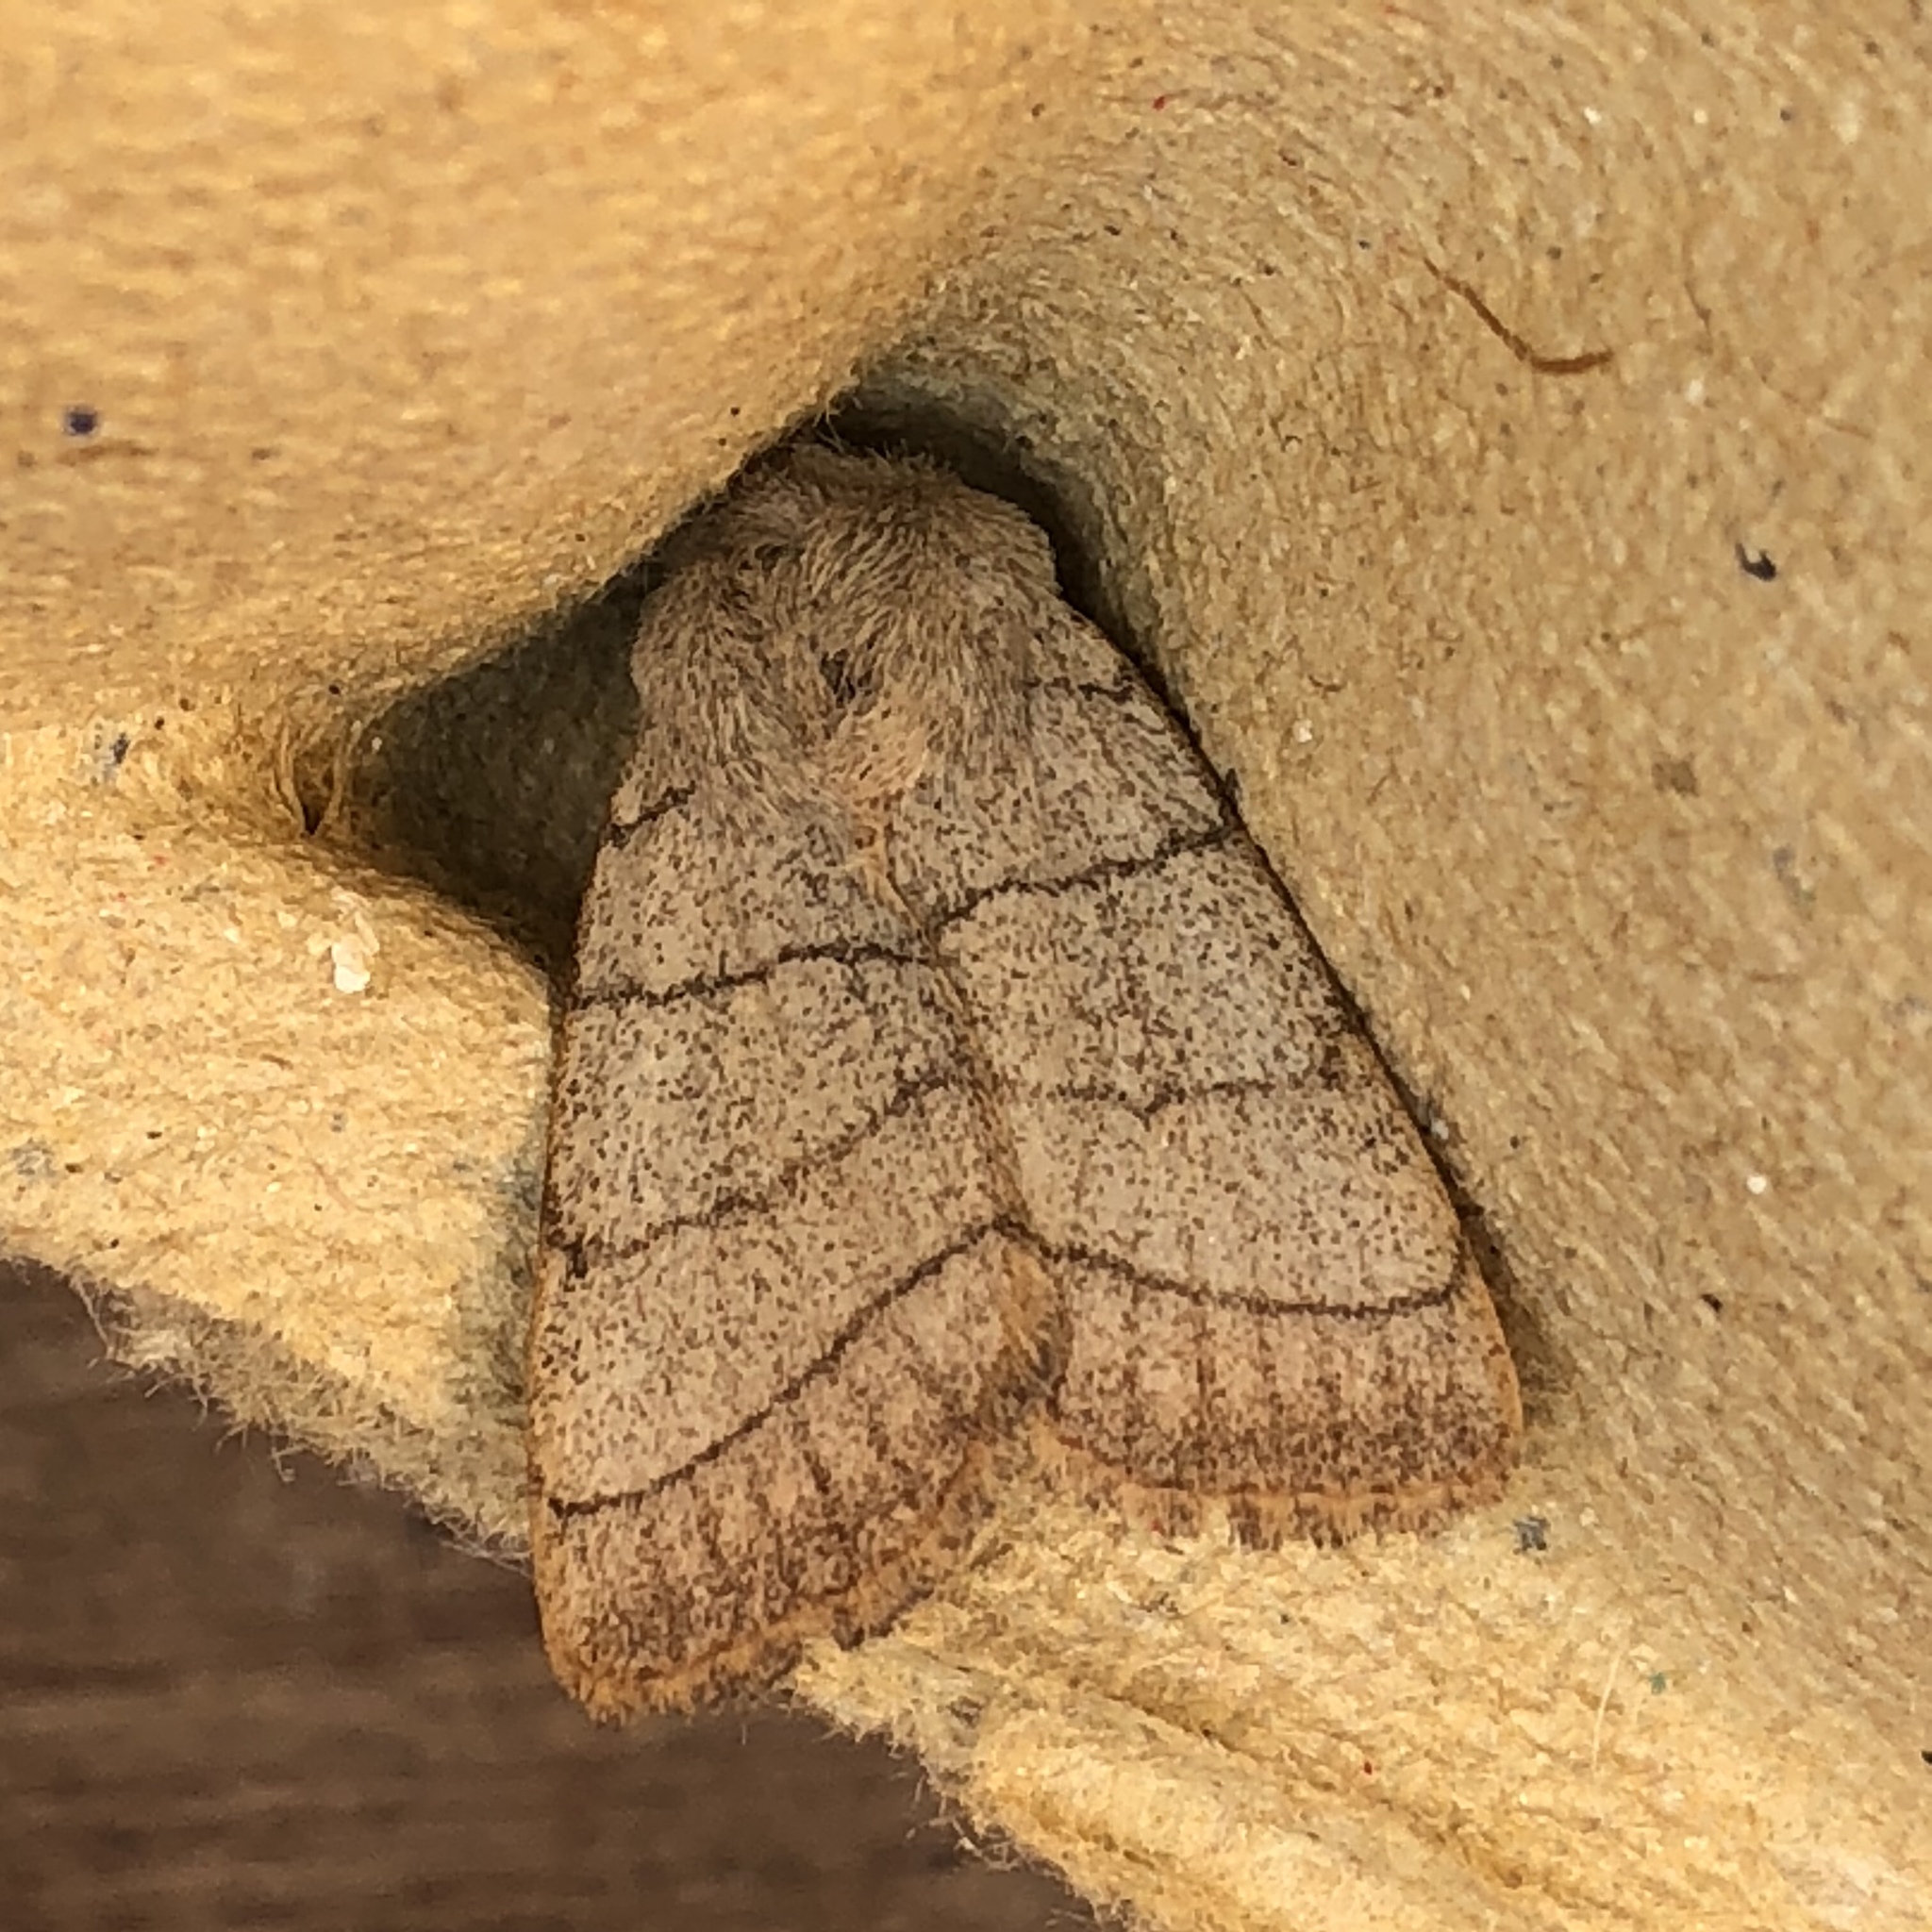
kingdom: Animalia
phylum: Arthropoda
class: Insecta
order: Lepidoptera
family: Noctuidae
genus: Charanyca
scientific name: Charanyca trigrammica
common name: Treble lines
